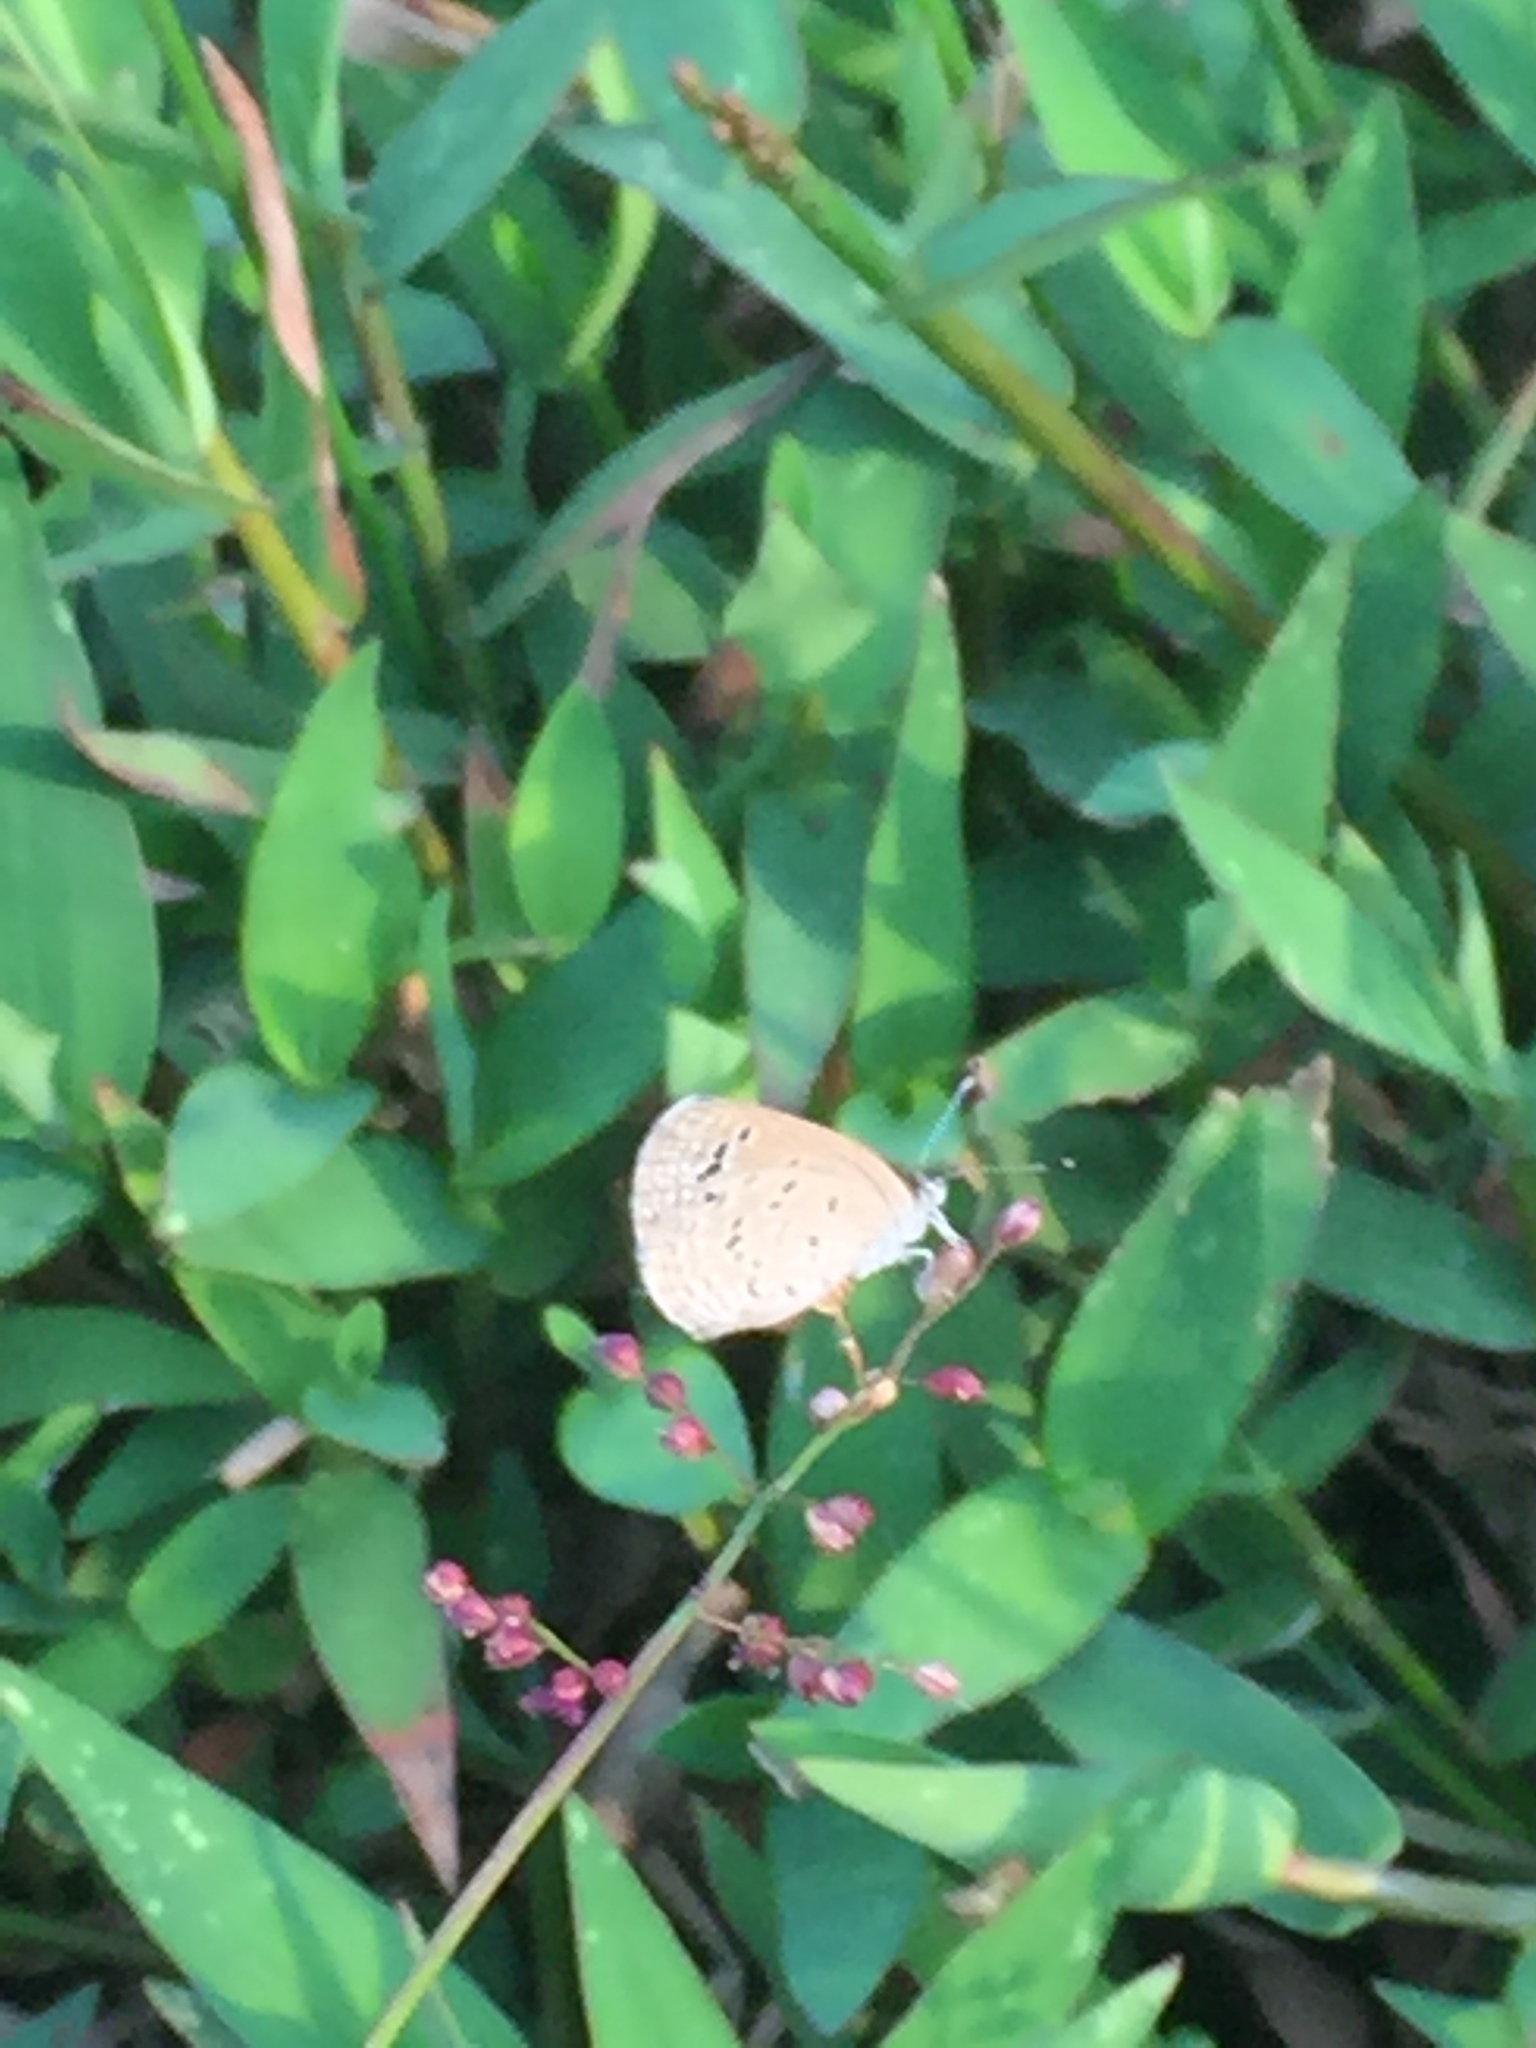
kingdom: Animalia
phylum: Arthropoda
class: Insecta
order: Lepidoptera
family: Lycaenidae
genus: Zizina
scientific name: Zizina otis
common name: Lesser grass blue
